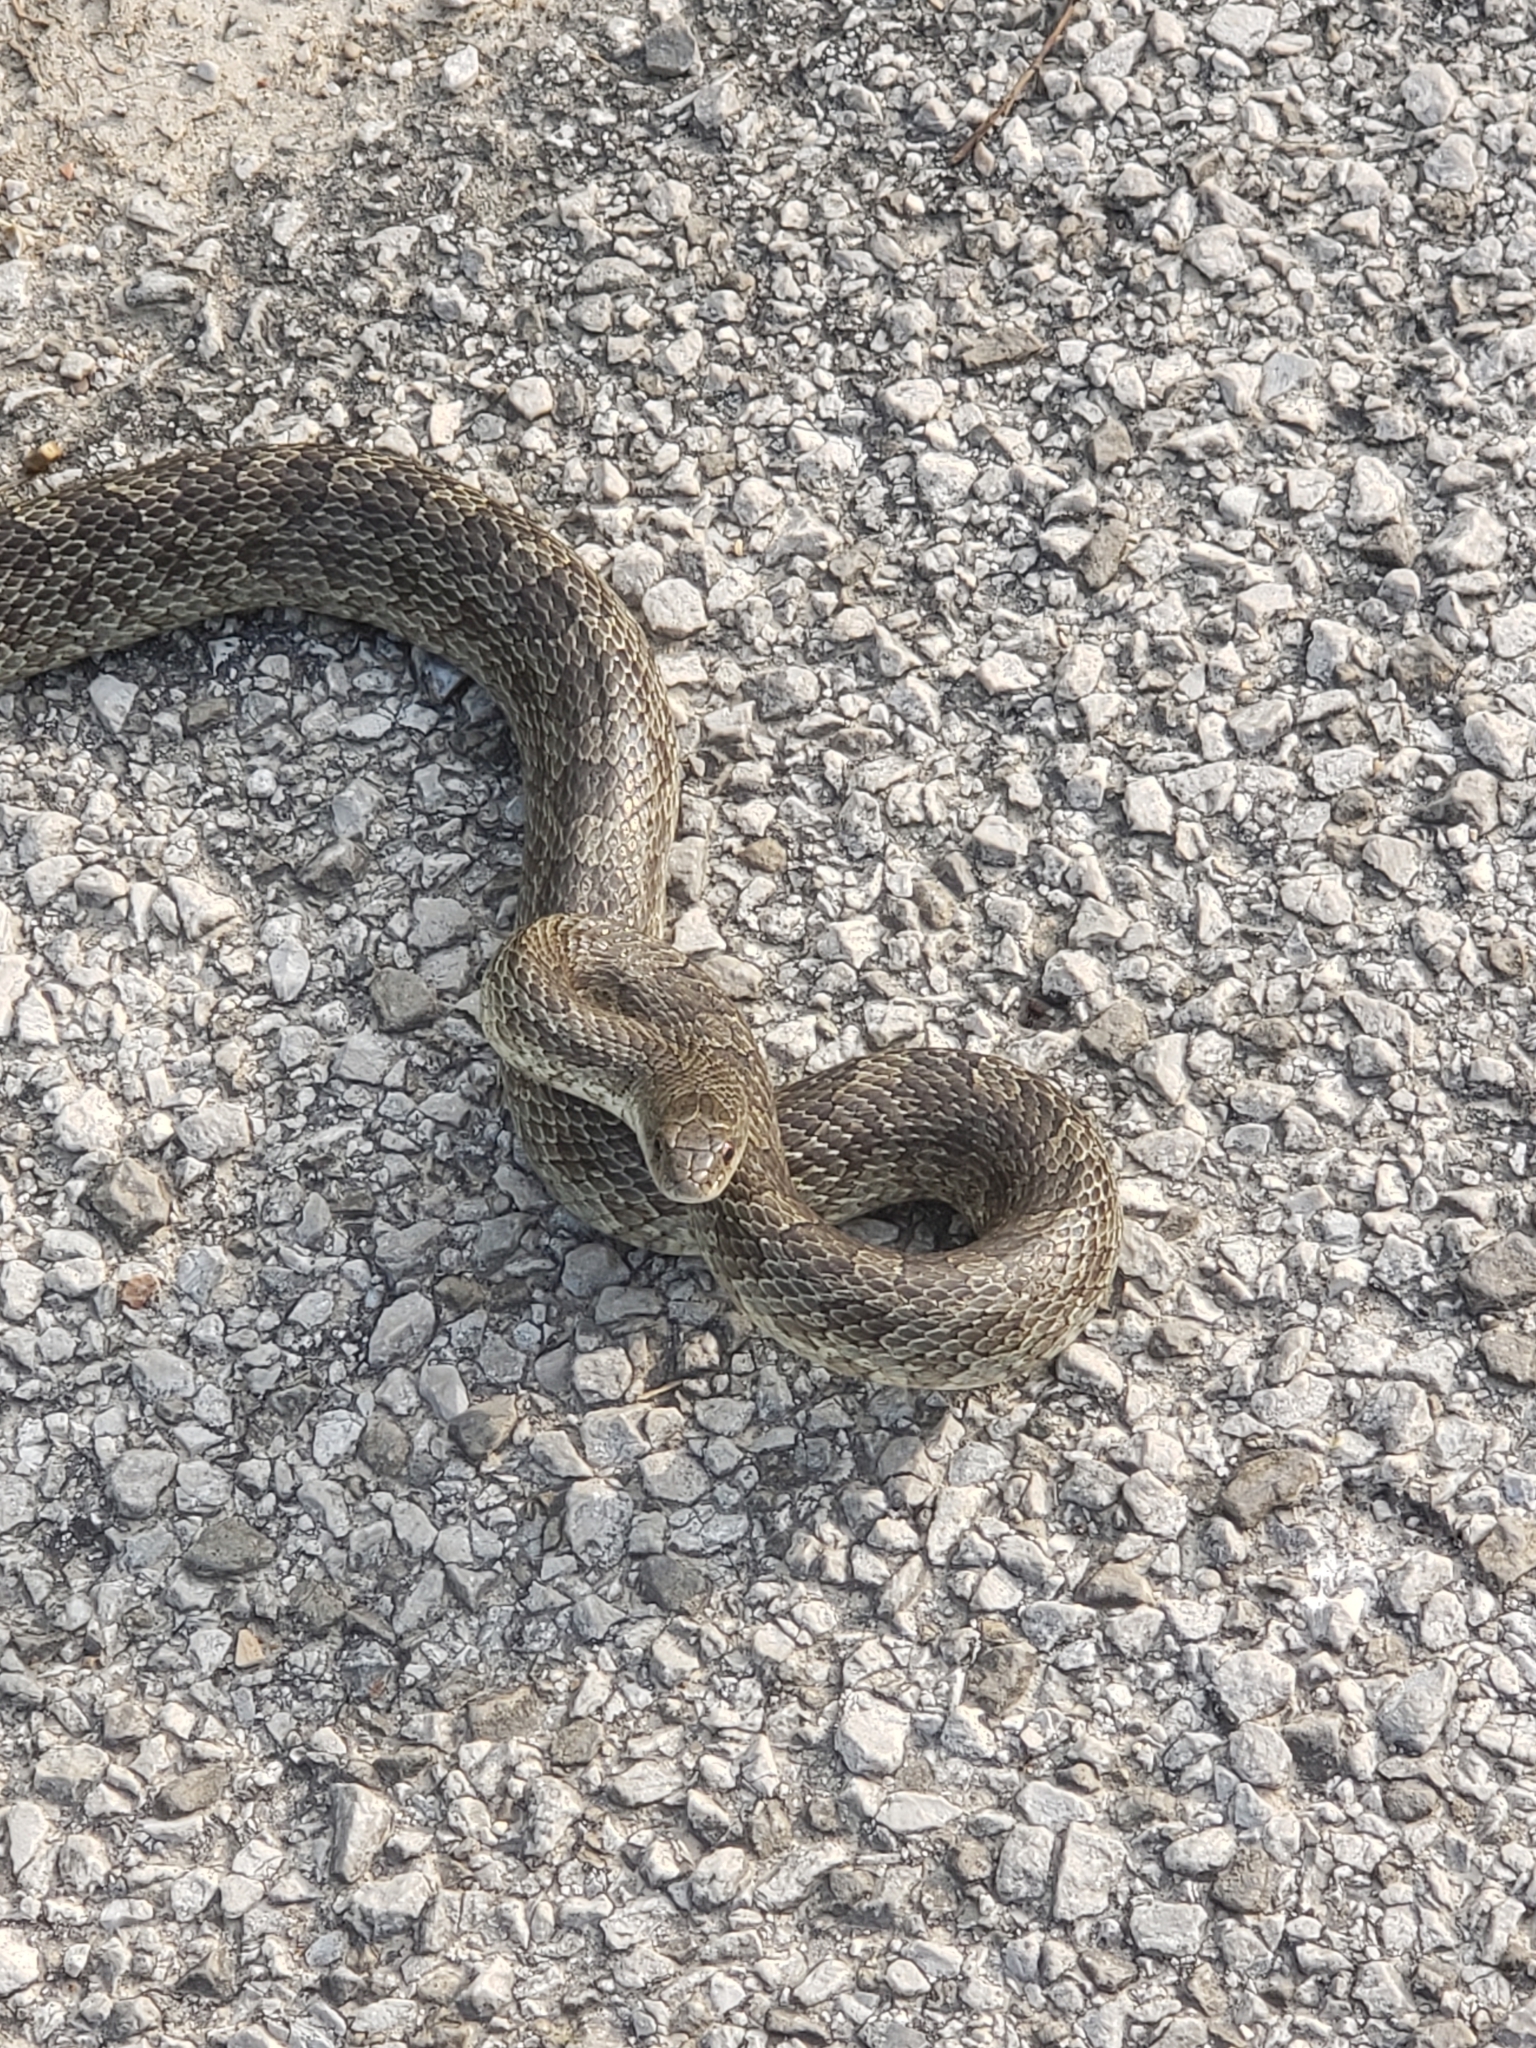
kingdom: Animalia
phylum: Chordata
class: Squamata
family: Colubridae
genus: Lampropeltis
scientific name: Lampropeltis calligaster
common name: Prairie kingsnake
